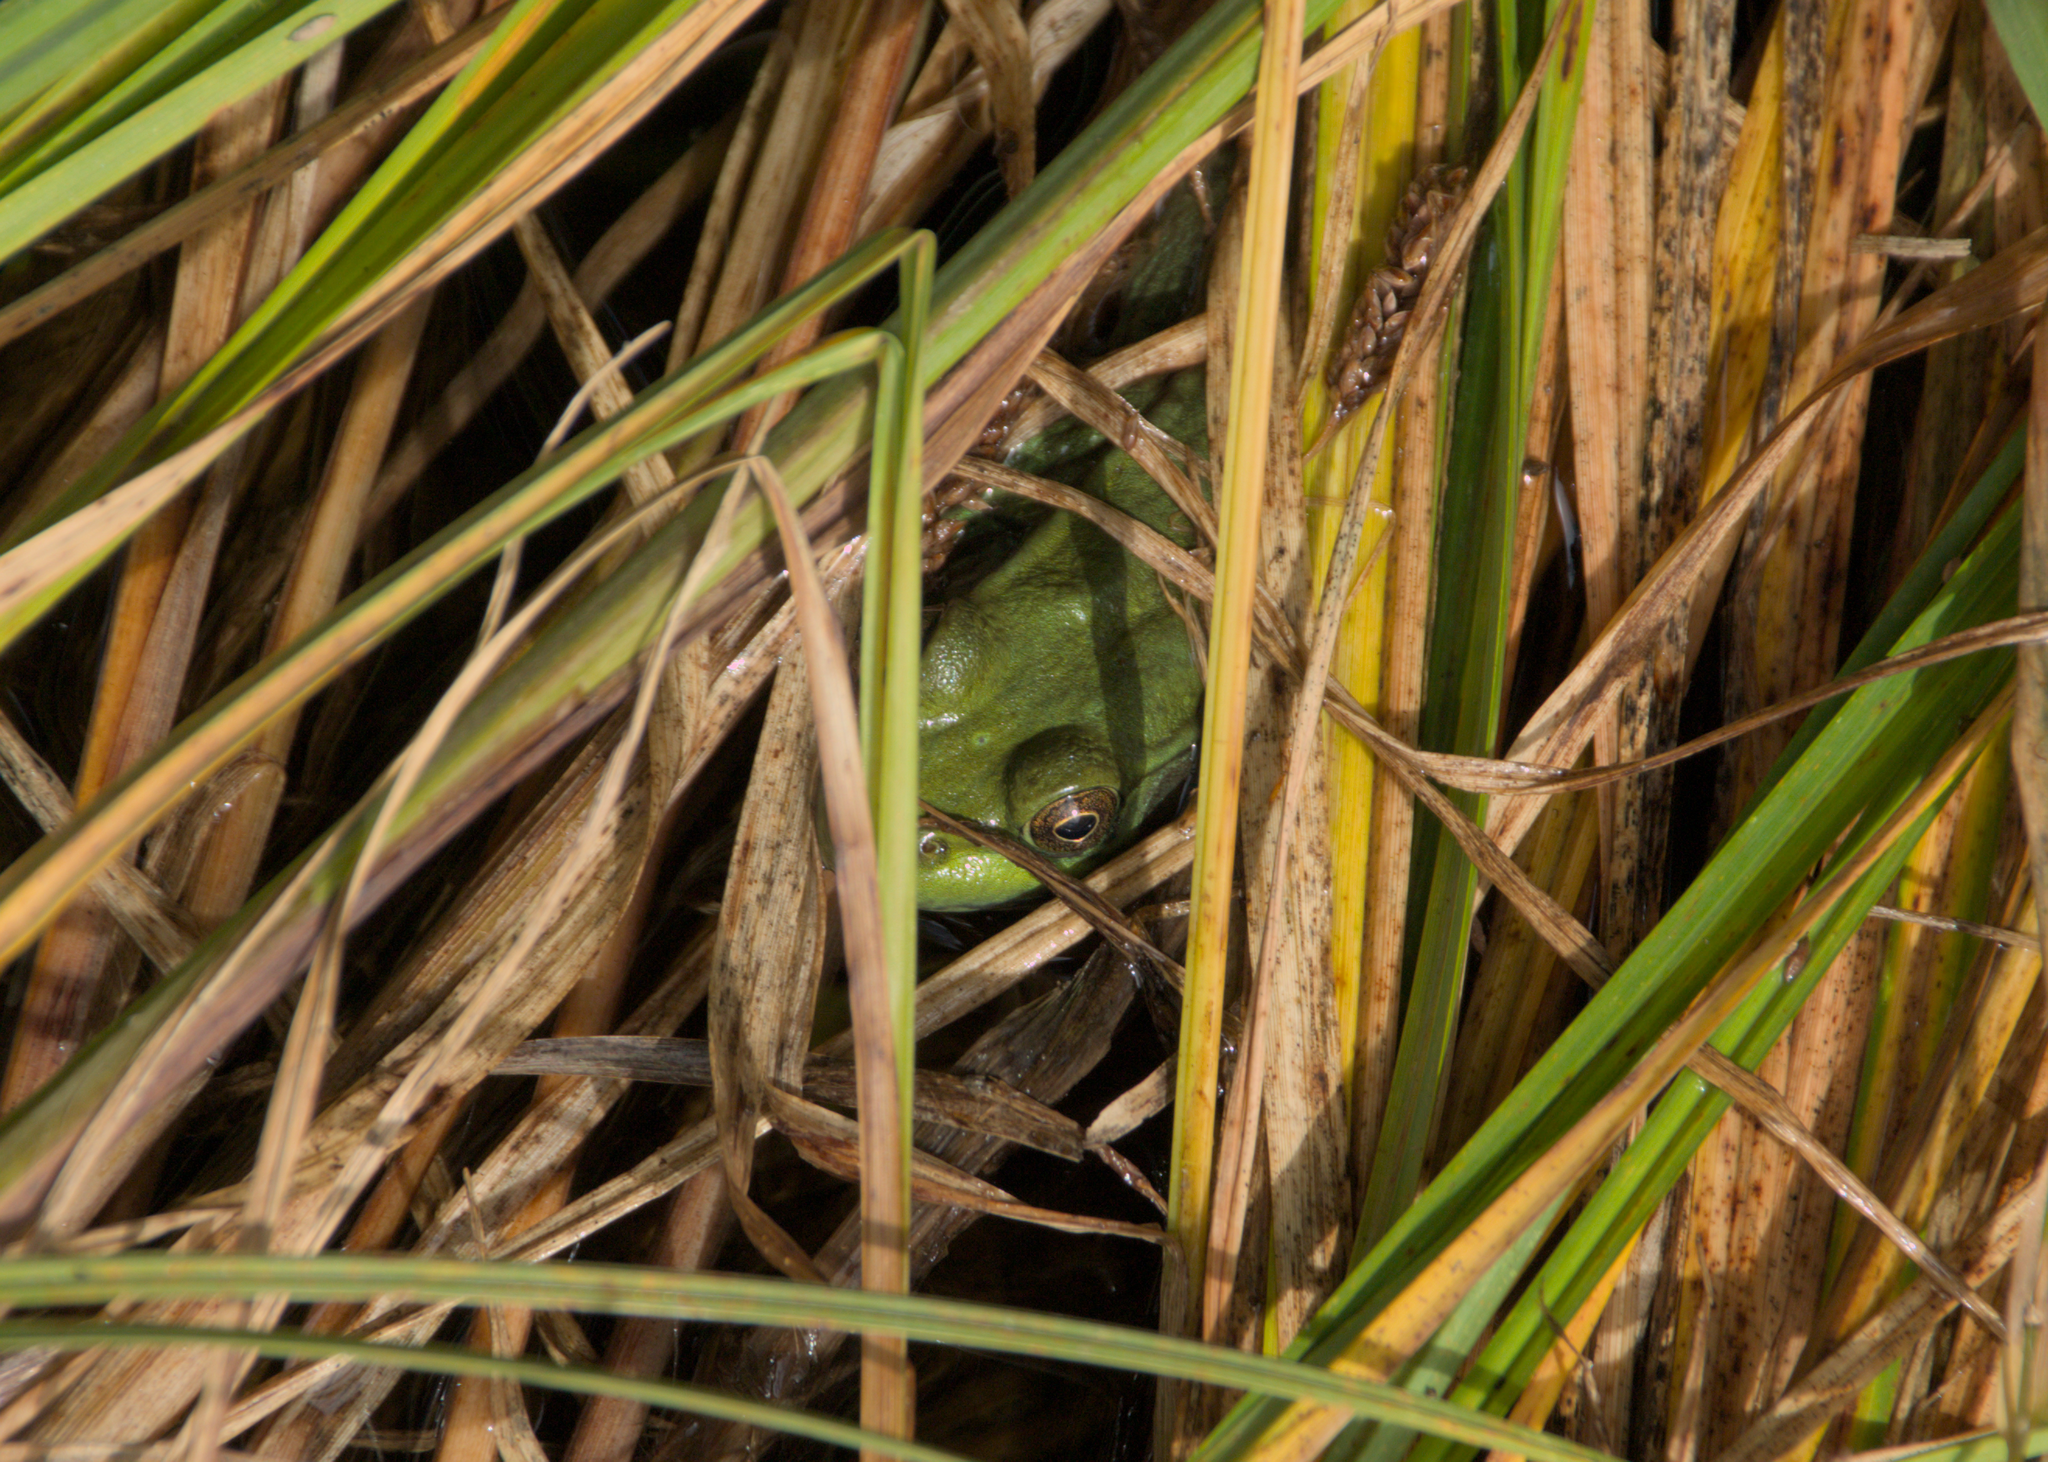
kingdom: Animalia
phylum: Chordata
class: Amphibia
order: Anura
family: Ranidae
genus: Lithobates
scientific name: Lithobates clamitans
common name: Green frog
